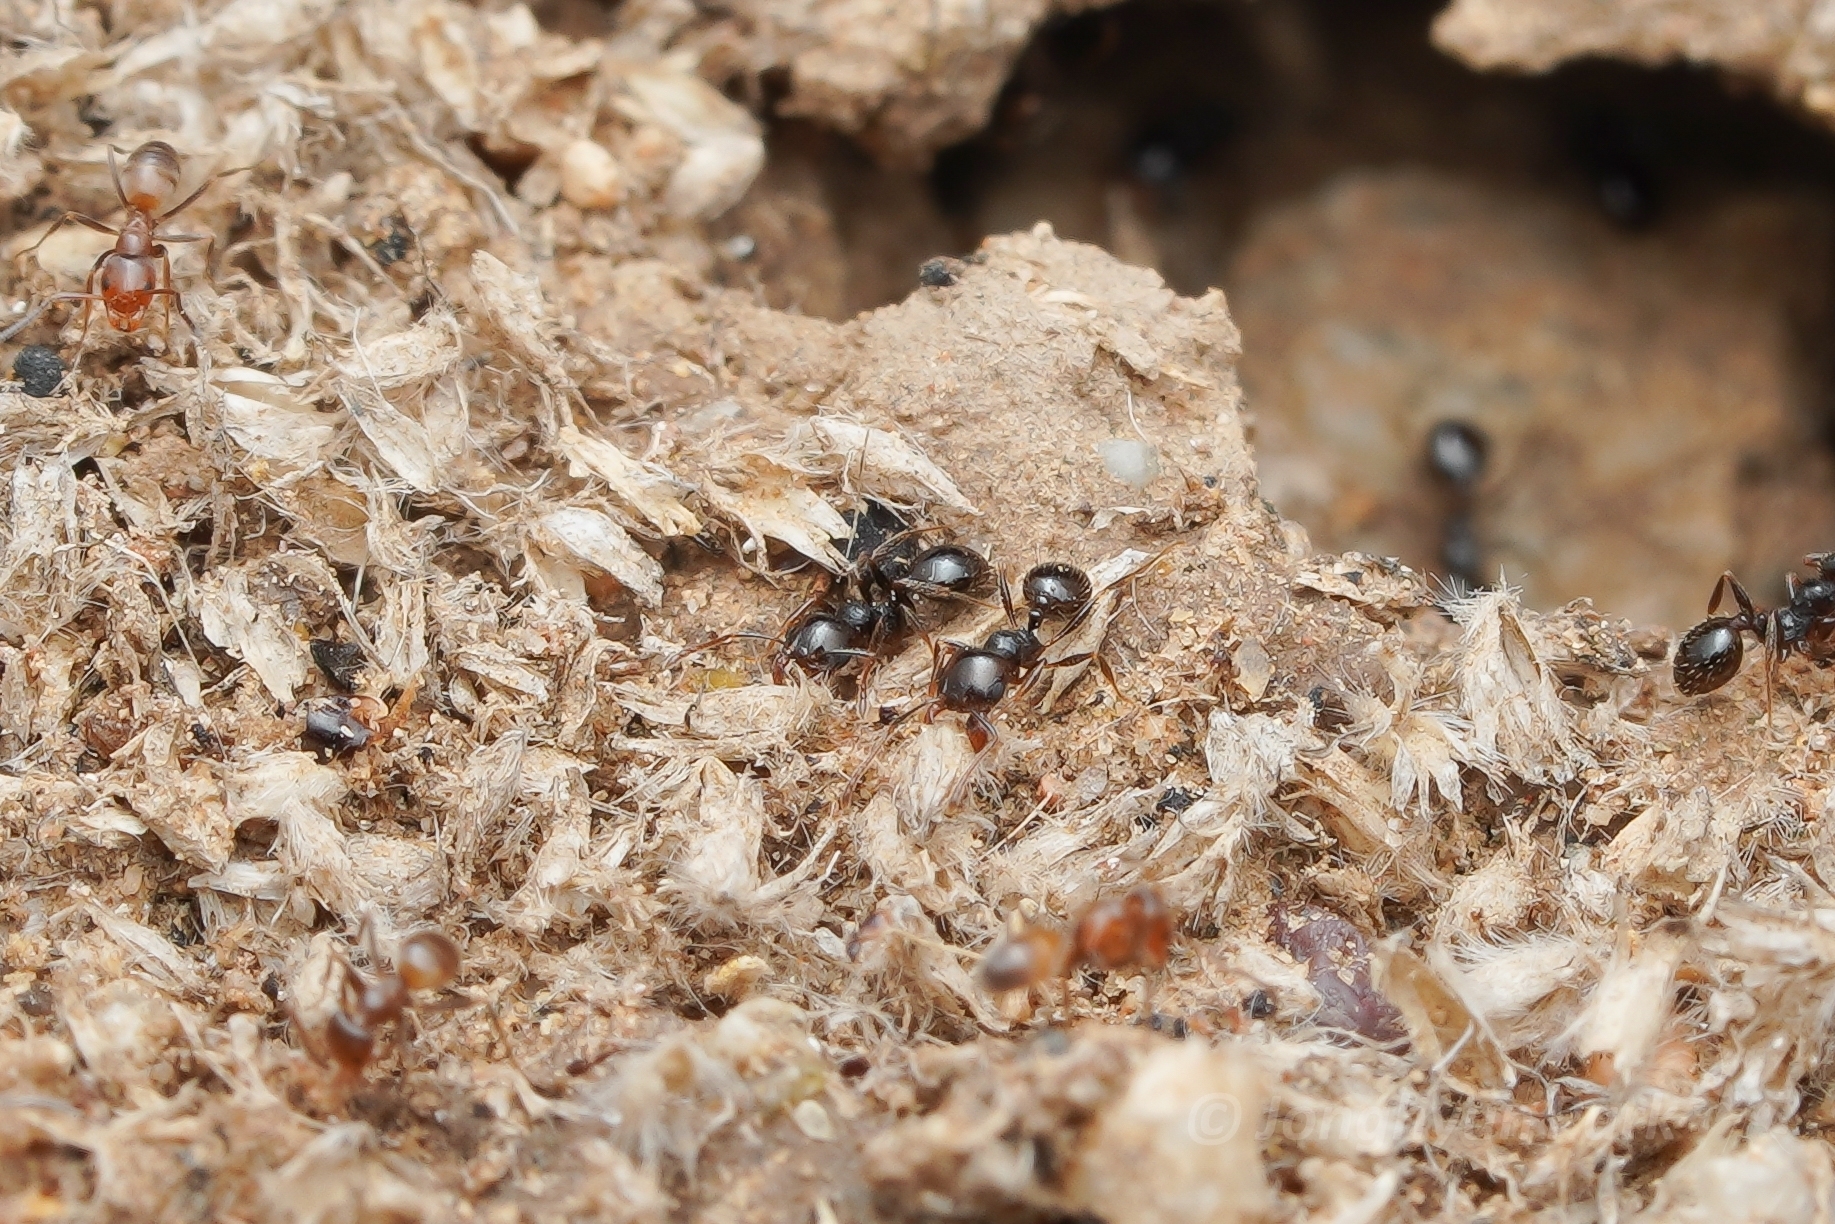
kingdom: Animalia
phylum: Arthropoda
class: Insecta
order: Hymenoptera
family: Formicidae
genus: Pheidole
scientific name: Pheidole xerophila
